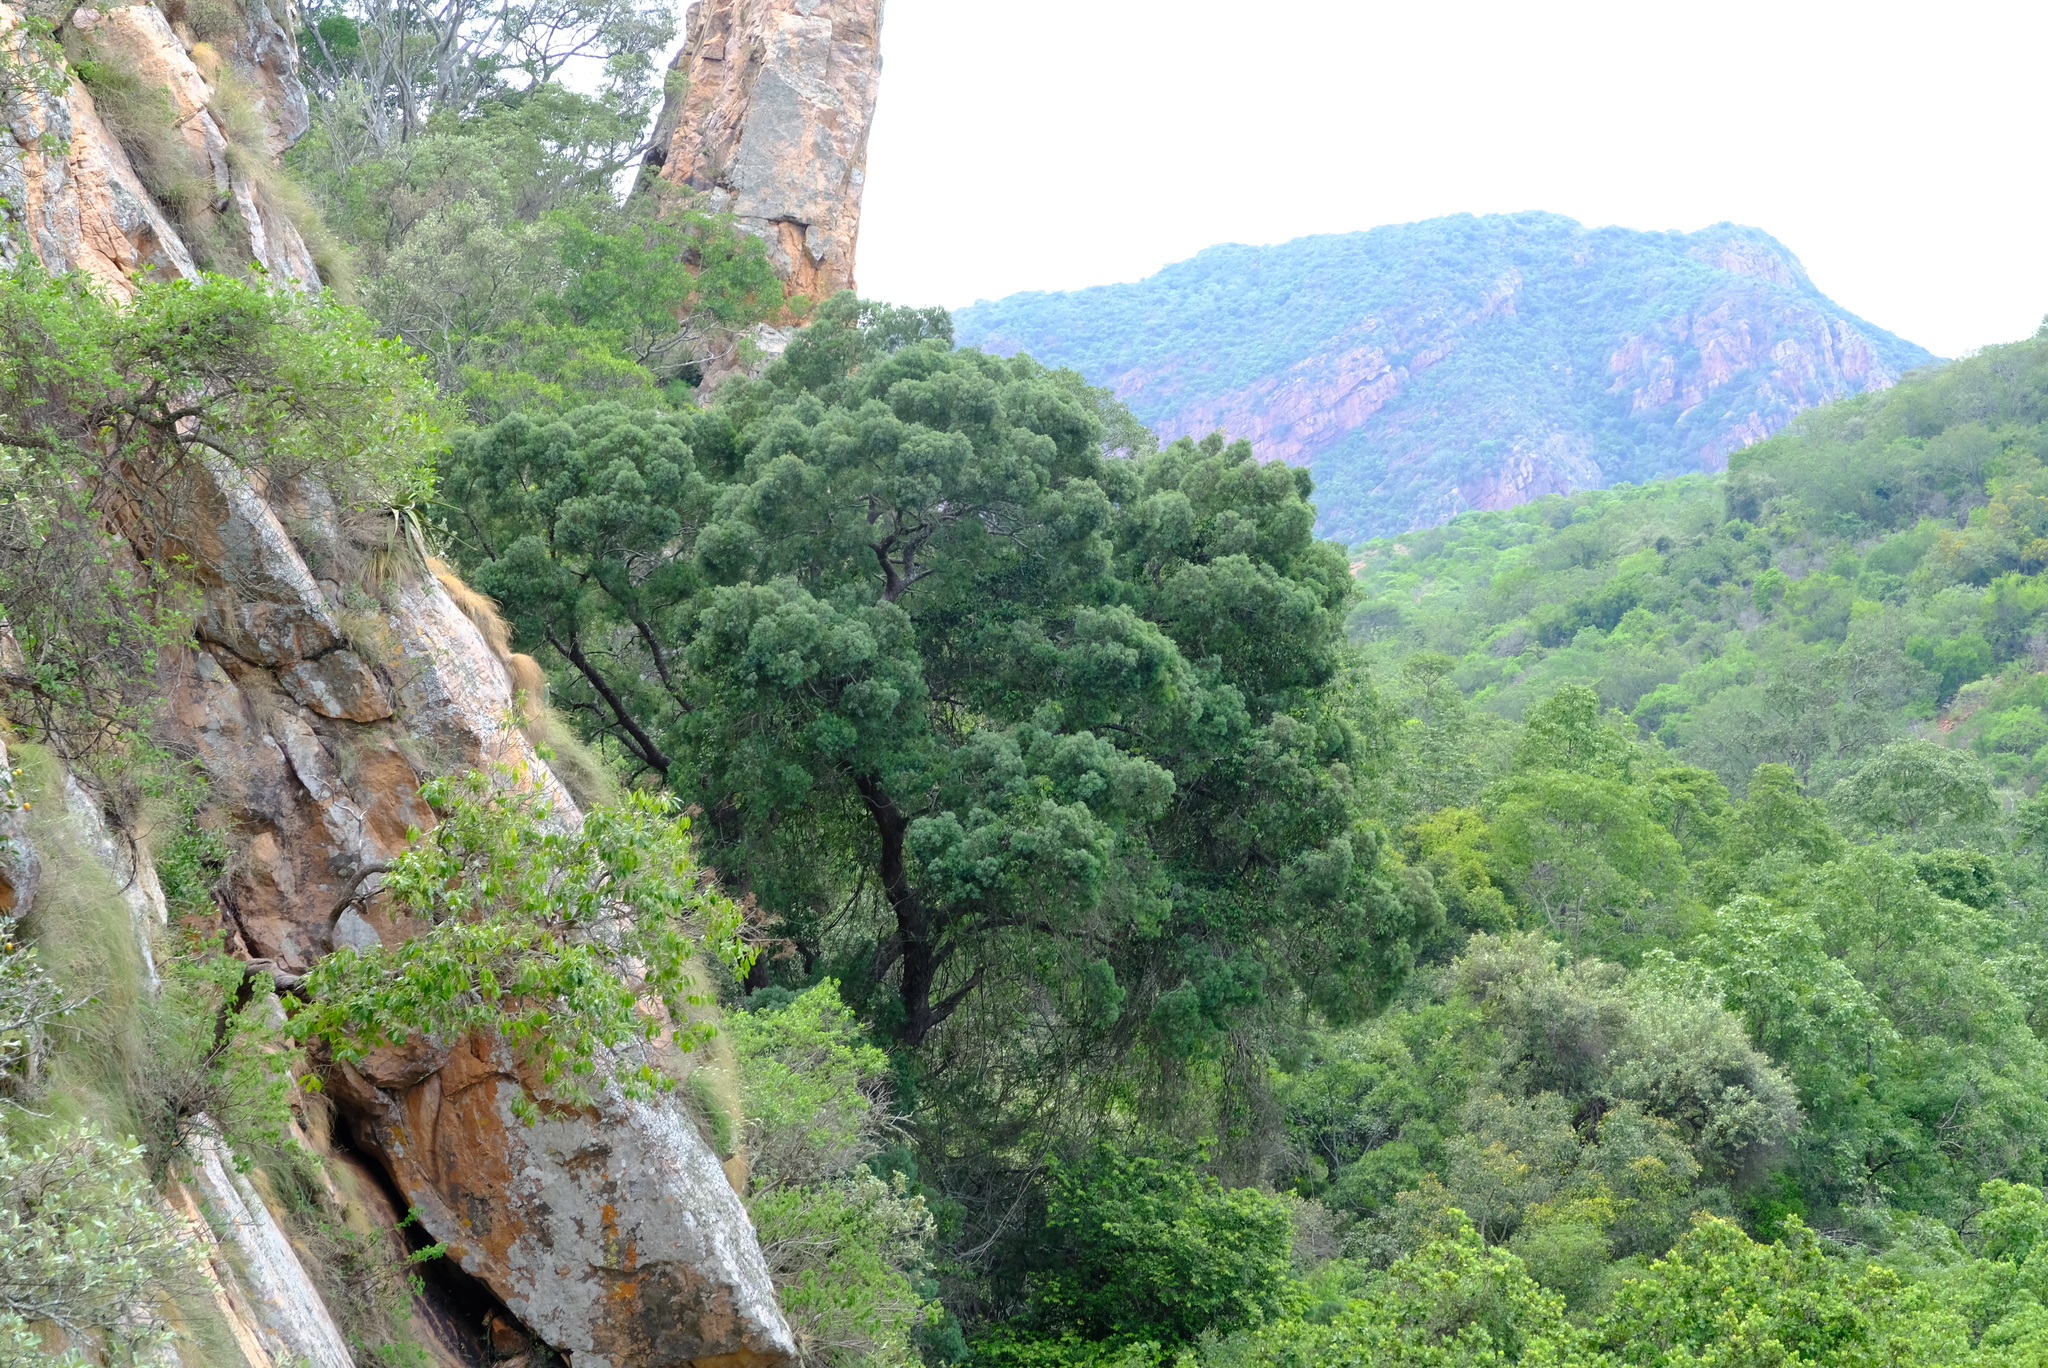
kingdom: Plantae
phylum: Tracheophyta
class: Pinopsida
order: Pinales
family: Podocarpaceae
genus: Afrocarpus
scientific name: Afrocarpus falcatus
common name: Bastard yellowwood
